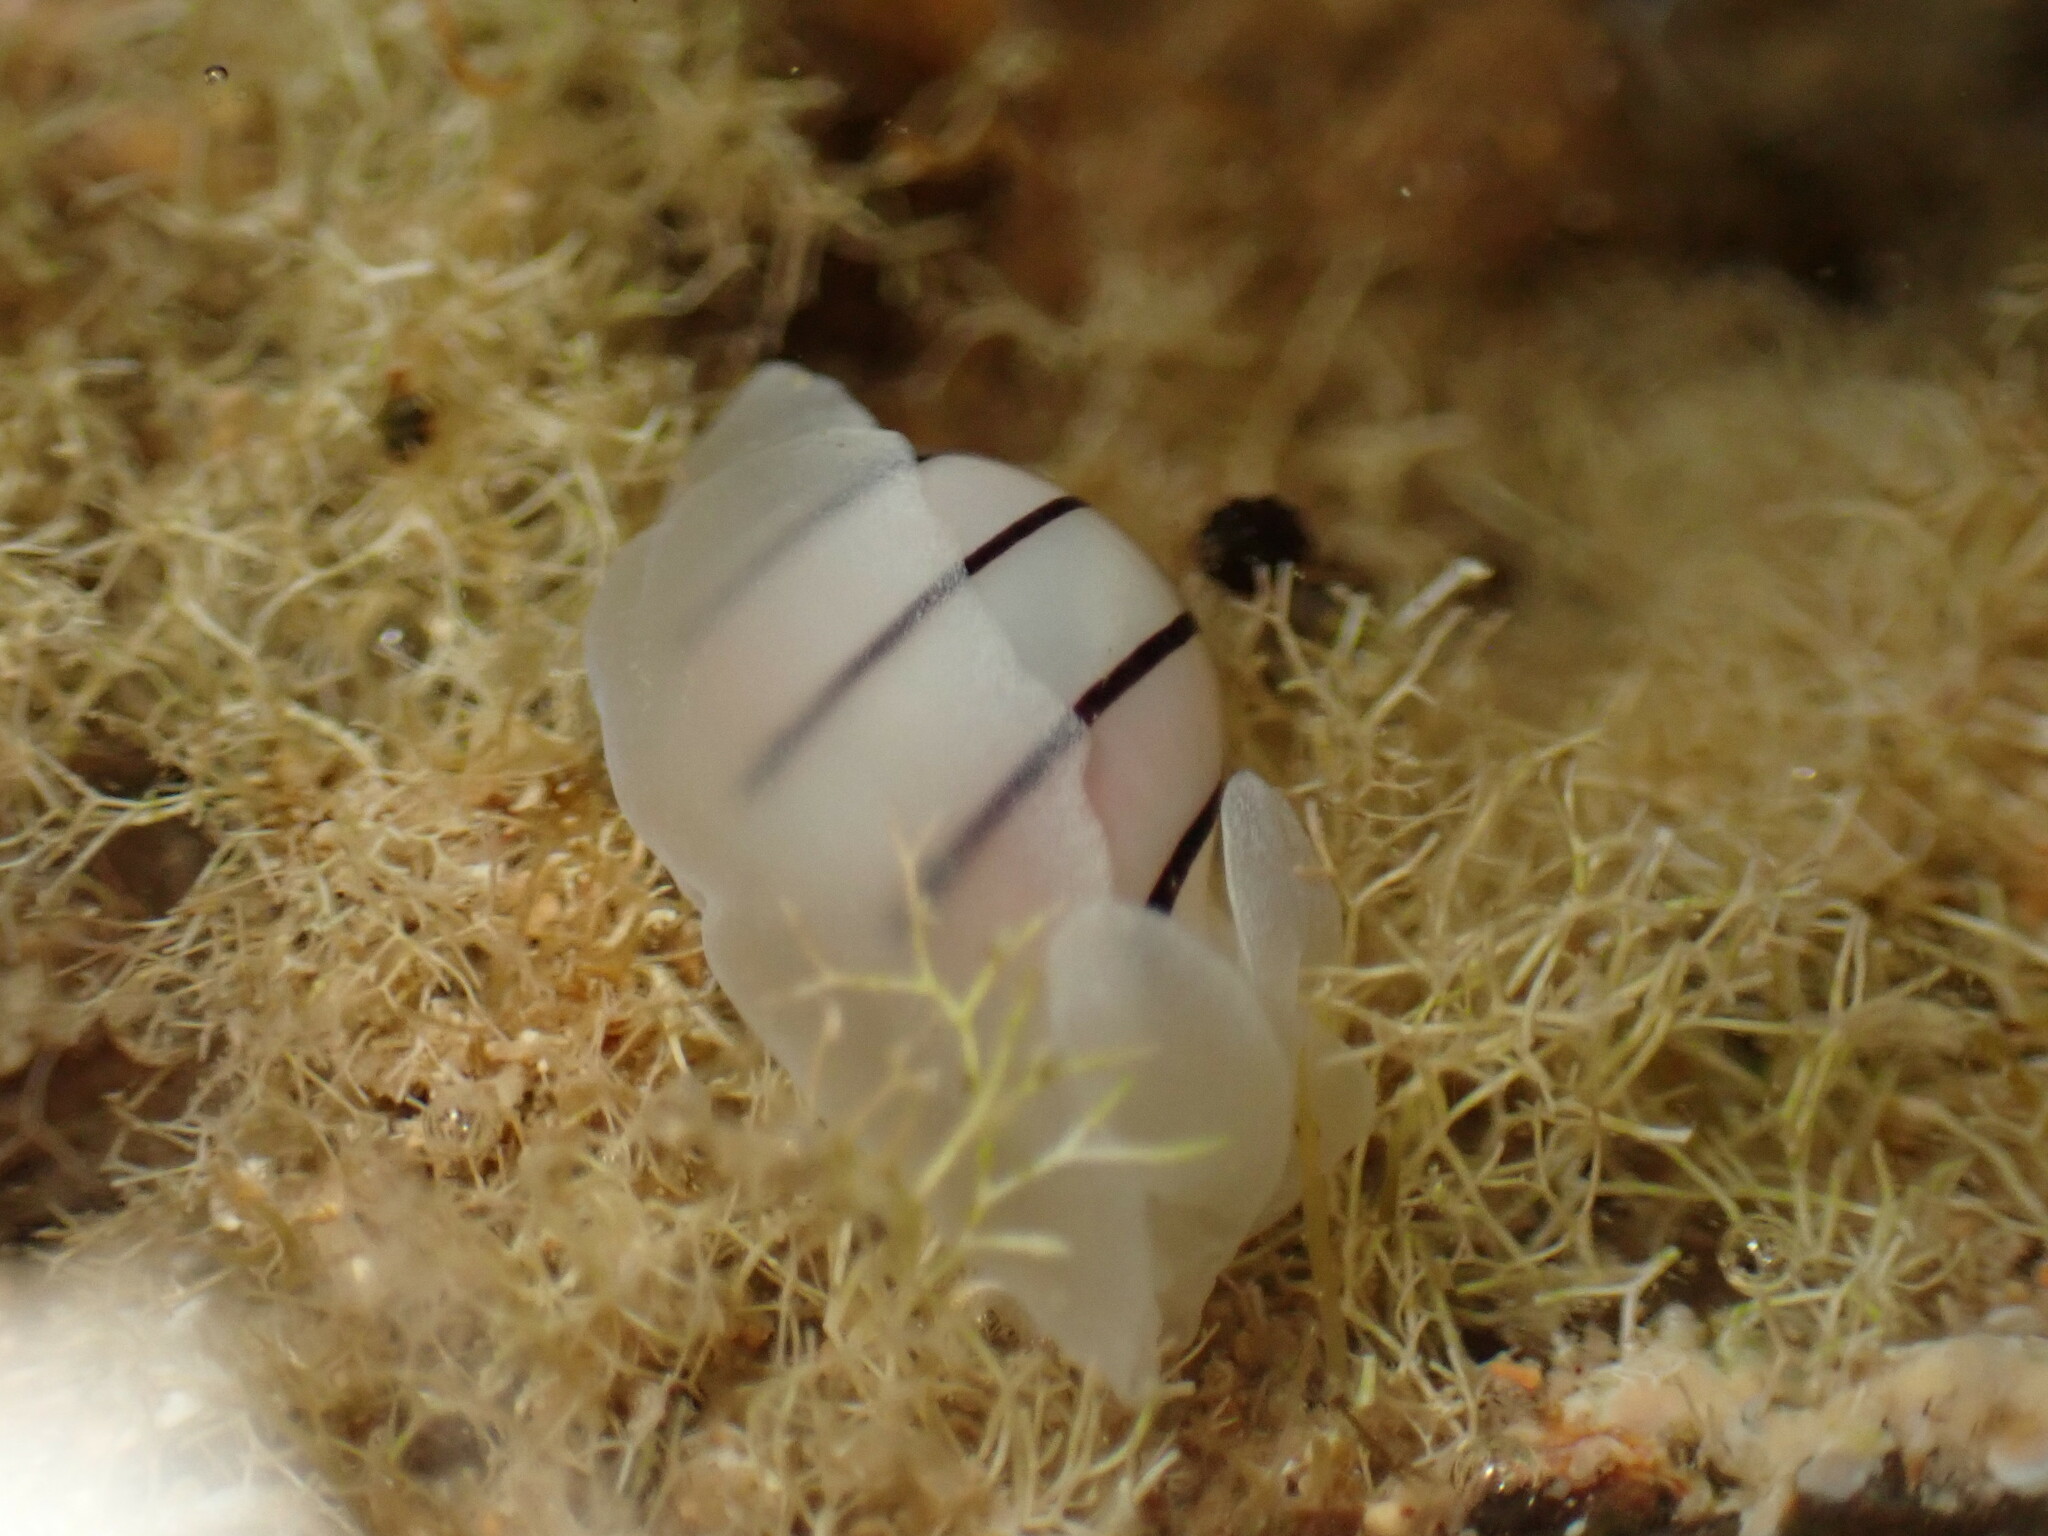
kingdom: Animalia
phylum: Mollusca
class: Gastropoda
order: Cephalaspidea
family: Aplustridae
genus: Aplustrum
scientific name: Aplustrum amplustre
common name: Royal paperbubble
